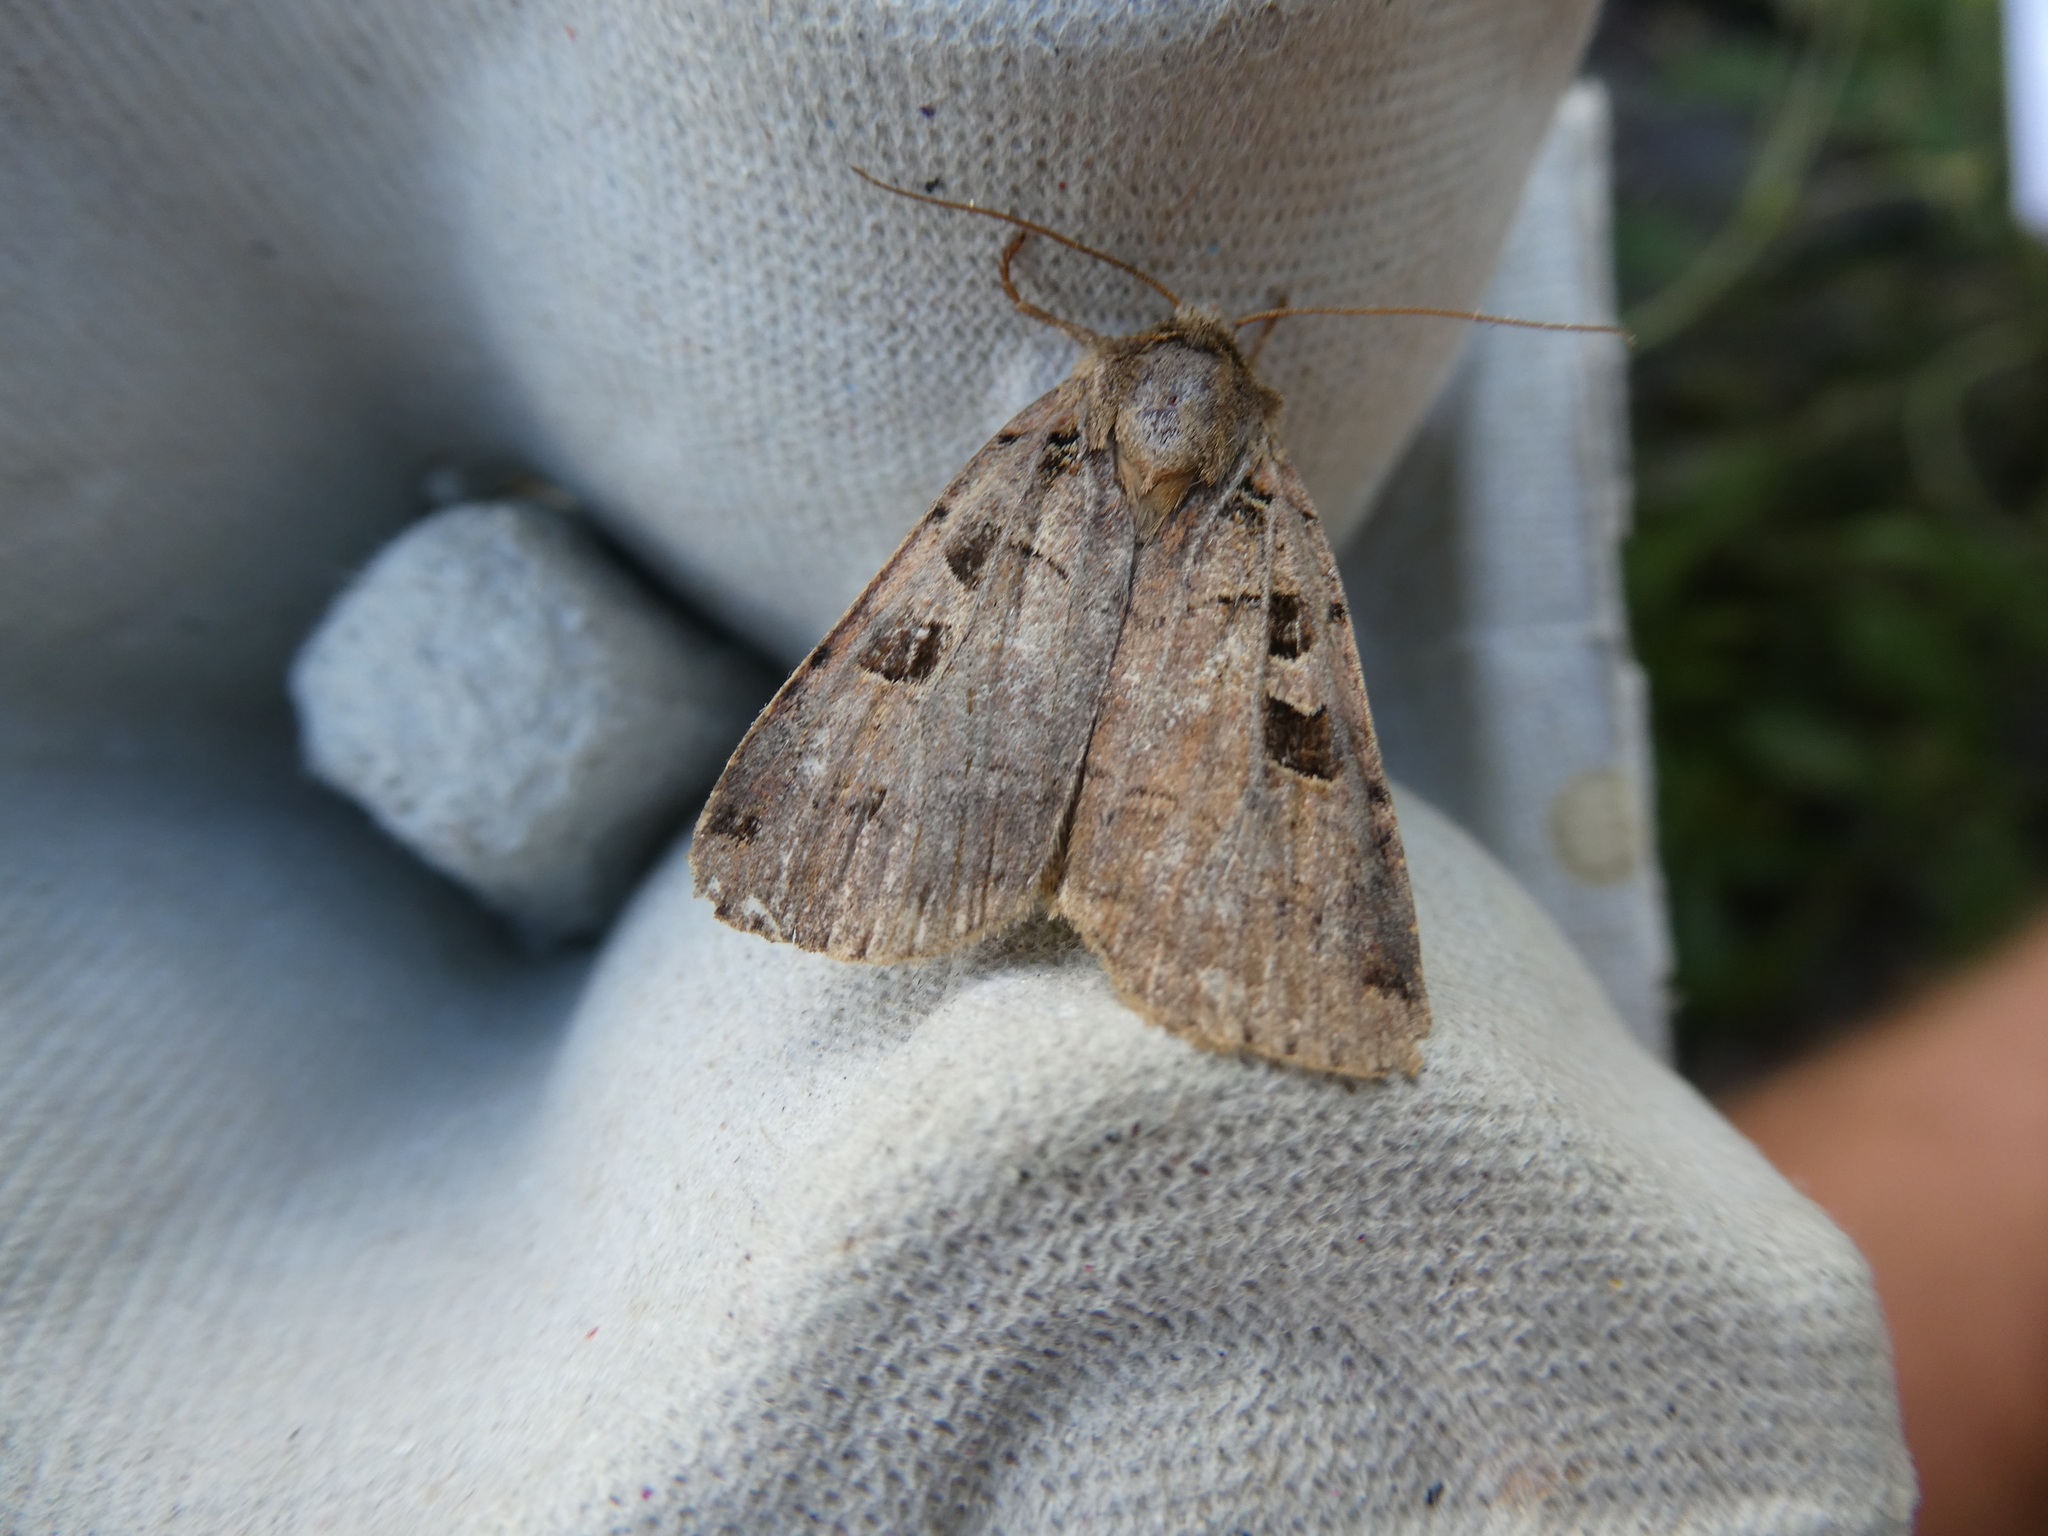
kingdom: Animalia
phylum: Arthropoda
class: Insecta
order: Lepidoptera
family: Noctuidae
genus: Xestia
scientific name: Xestia triangulum
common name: Double square-spot
